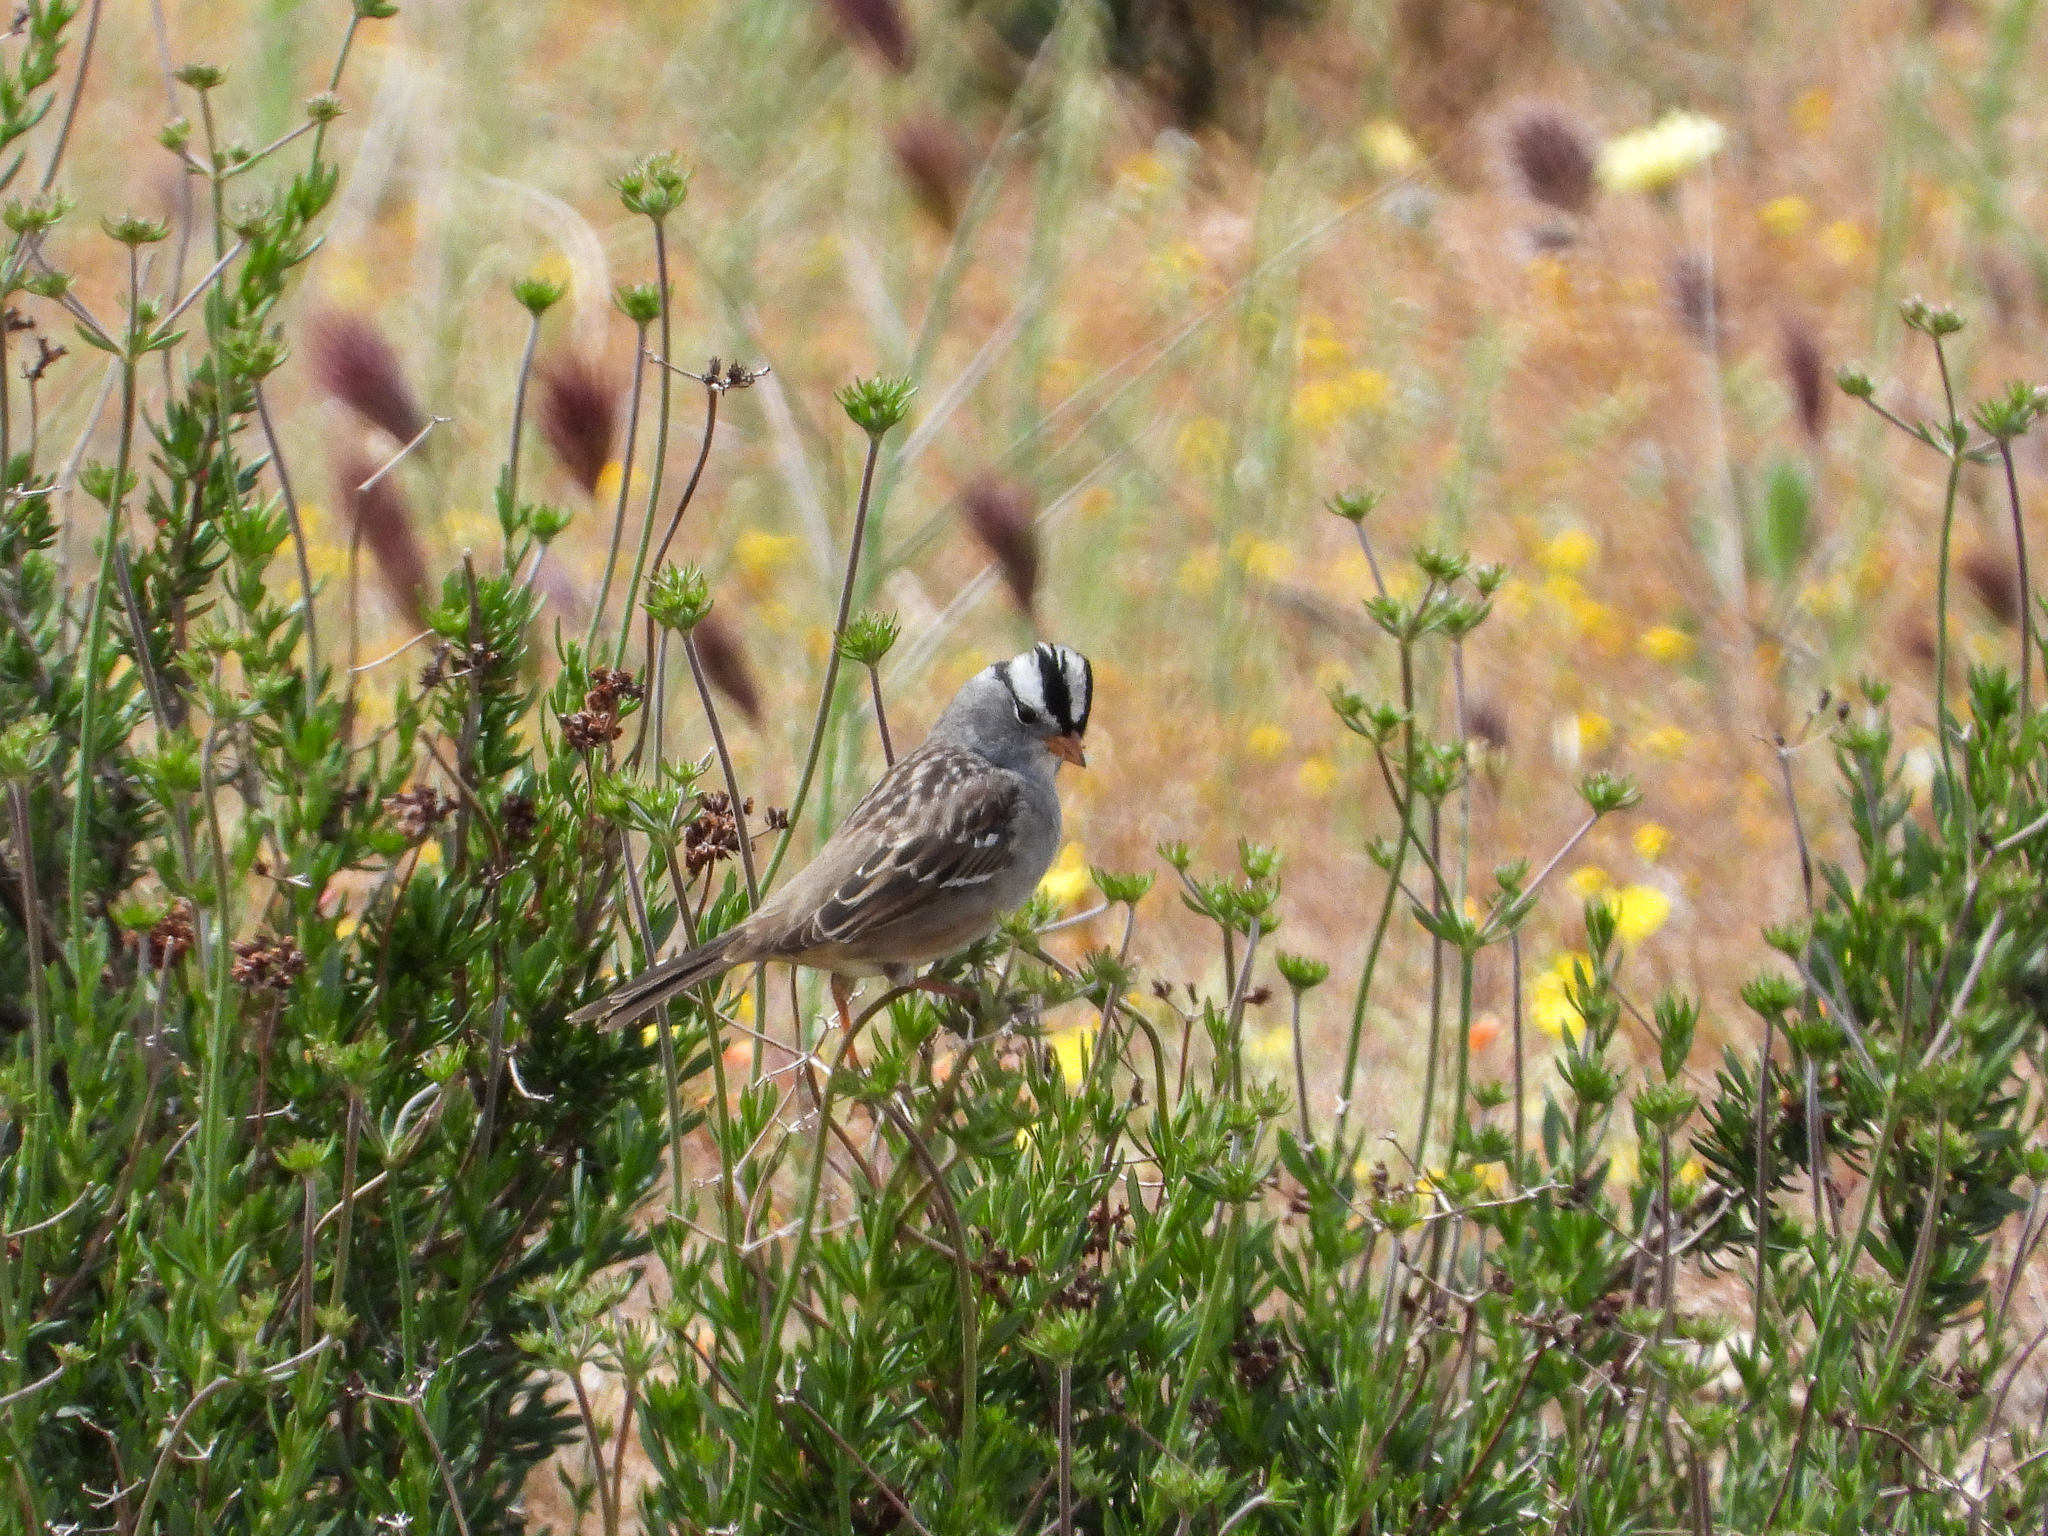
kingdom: Animalia
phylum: Chordata
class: Aves
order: Passeriformes
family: Passerellidae
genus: Zonotrichia
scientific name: Zonotrichia leucophrys
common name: White-crowned sparrow
